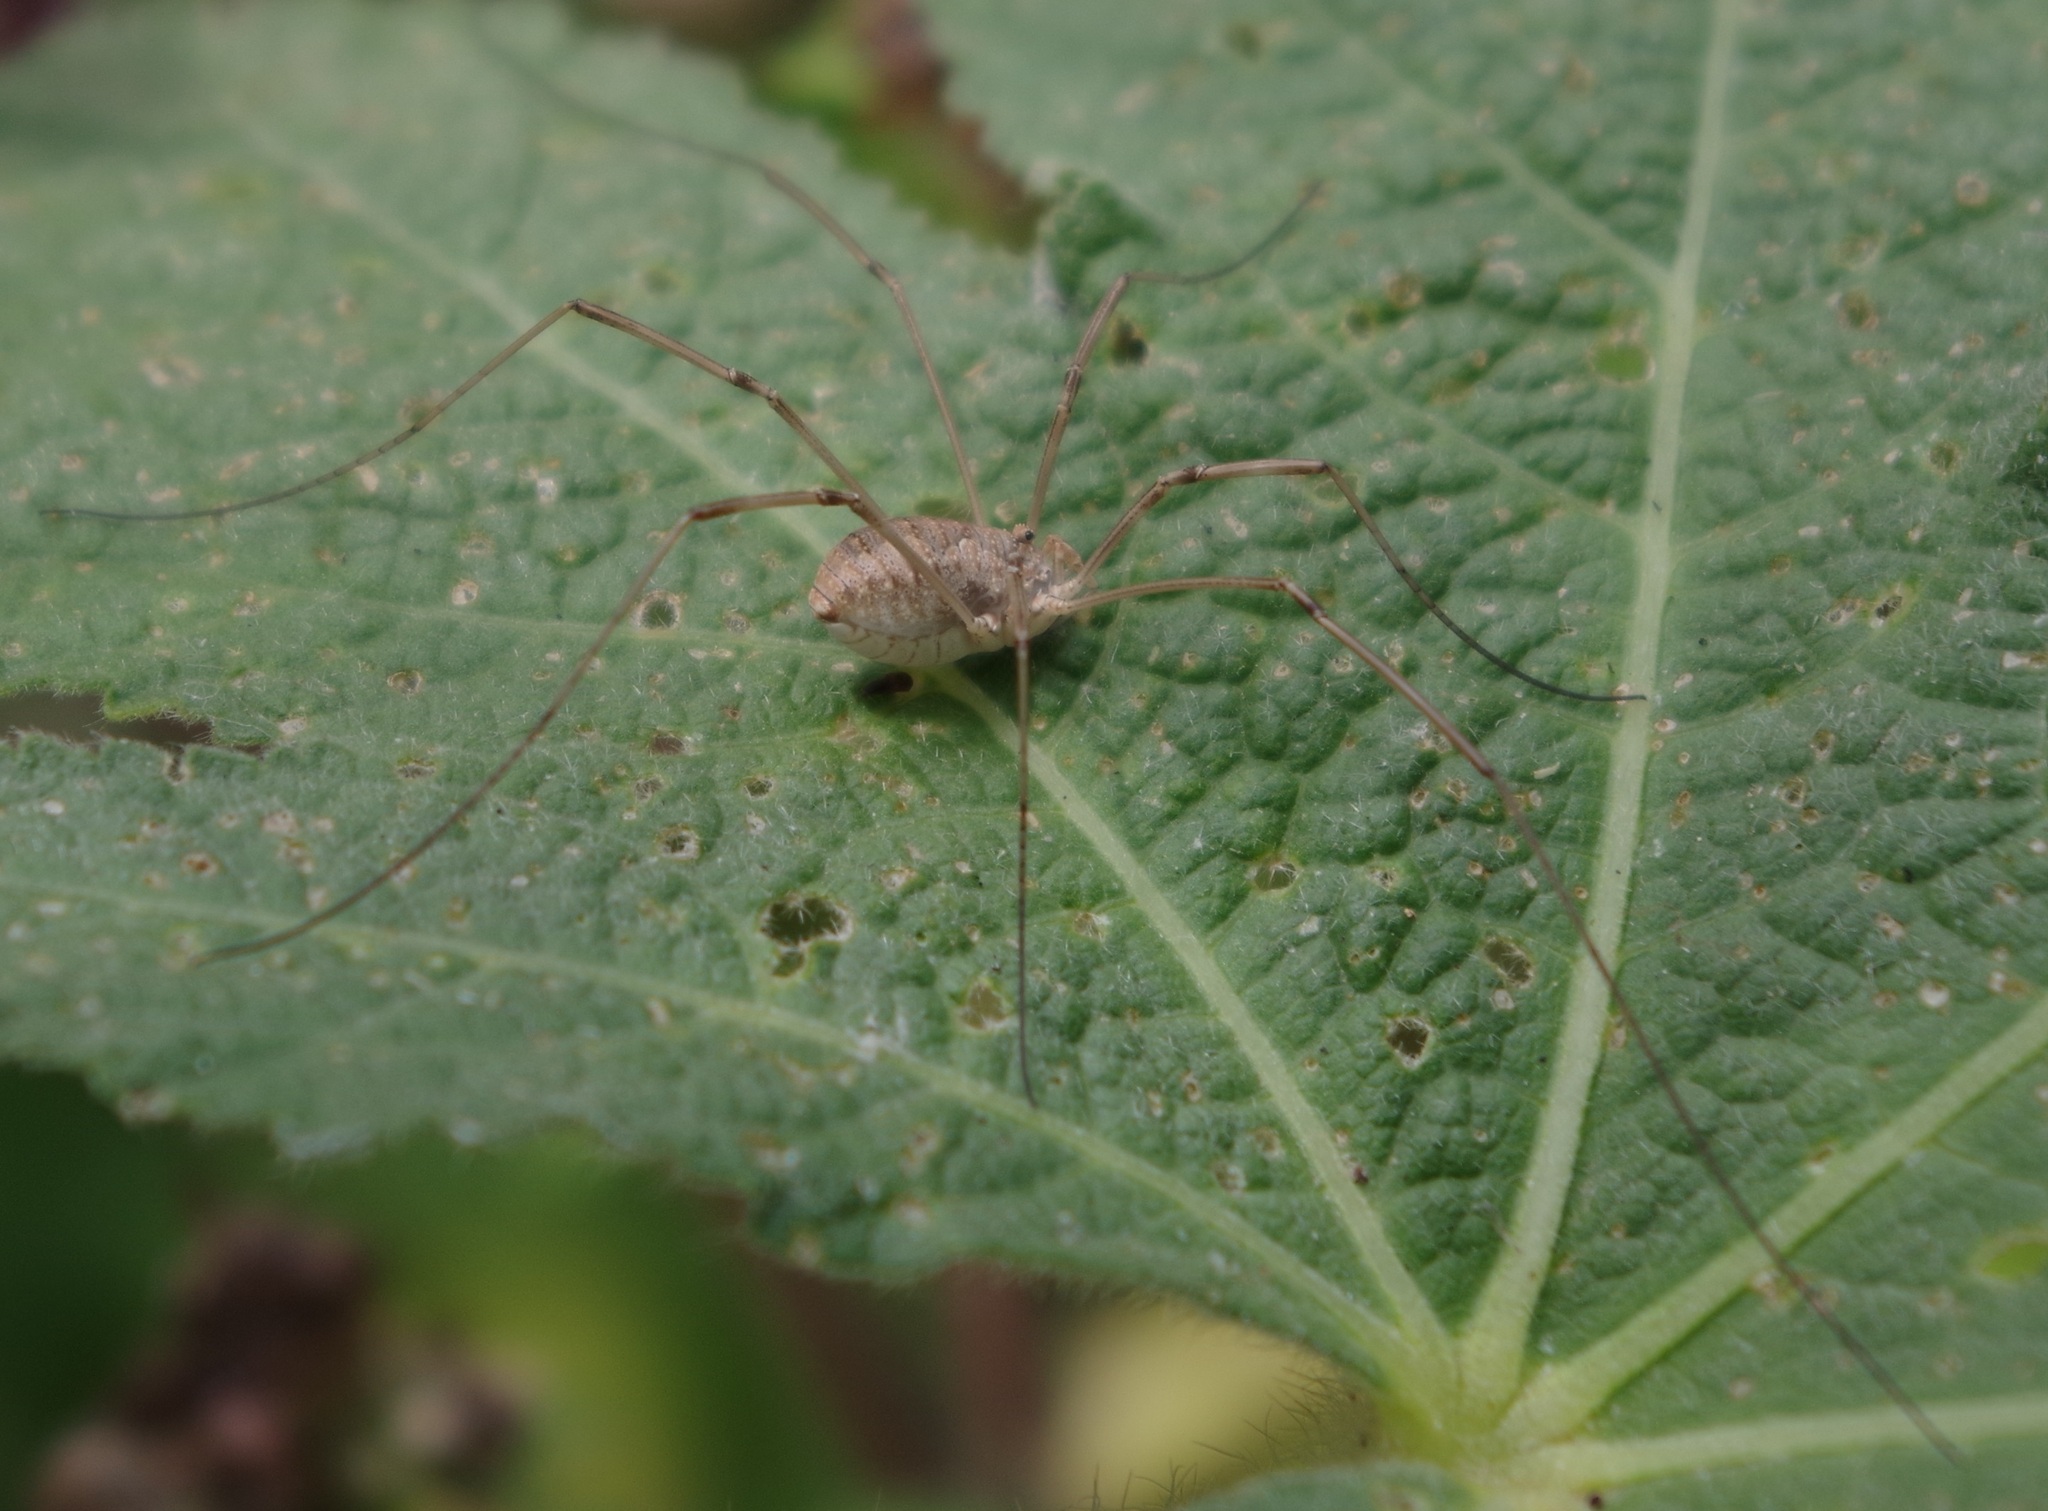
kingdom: Animalia
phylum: Arthropoda
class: Arachnida
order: Opiliones
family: Phalangiidae
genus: Phalangium
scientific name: Phalangium opilio
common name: Daddy longleg
